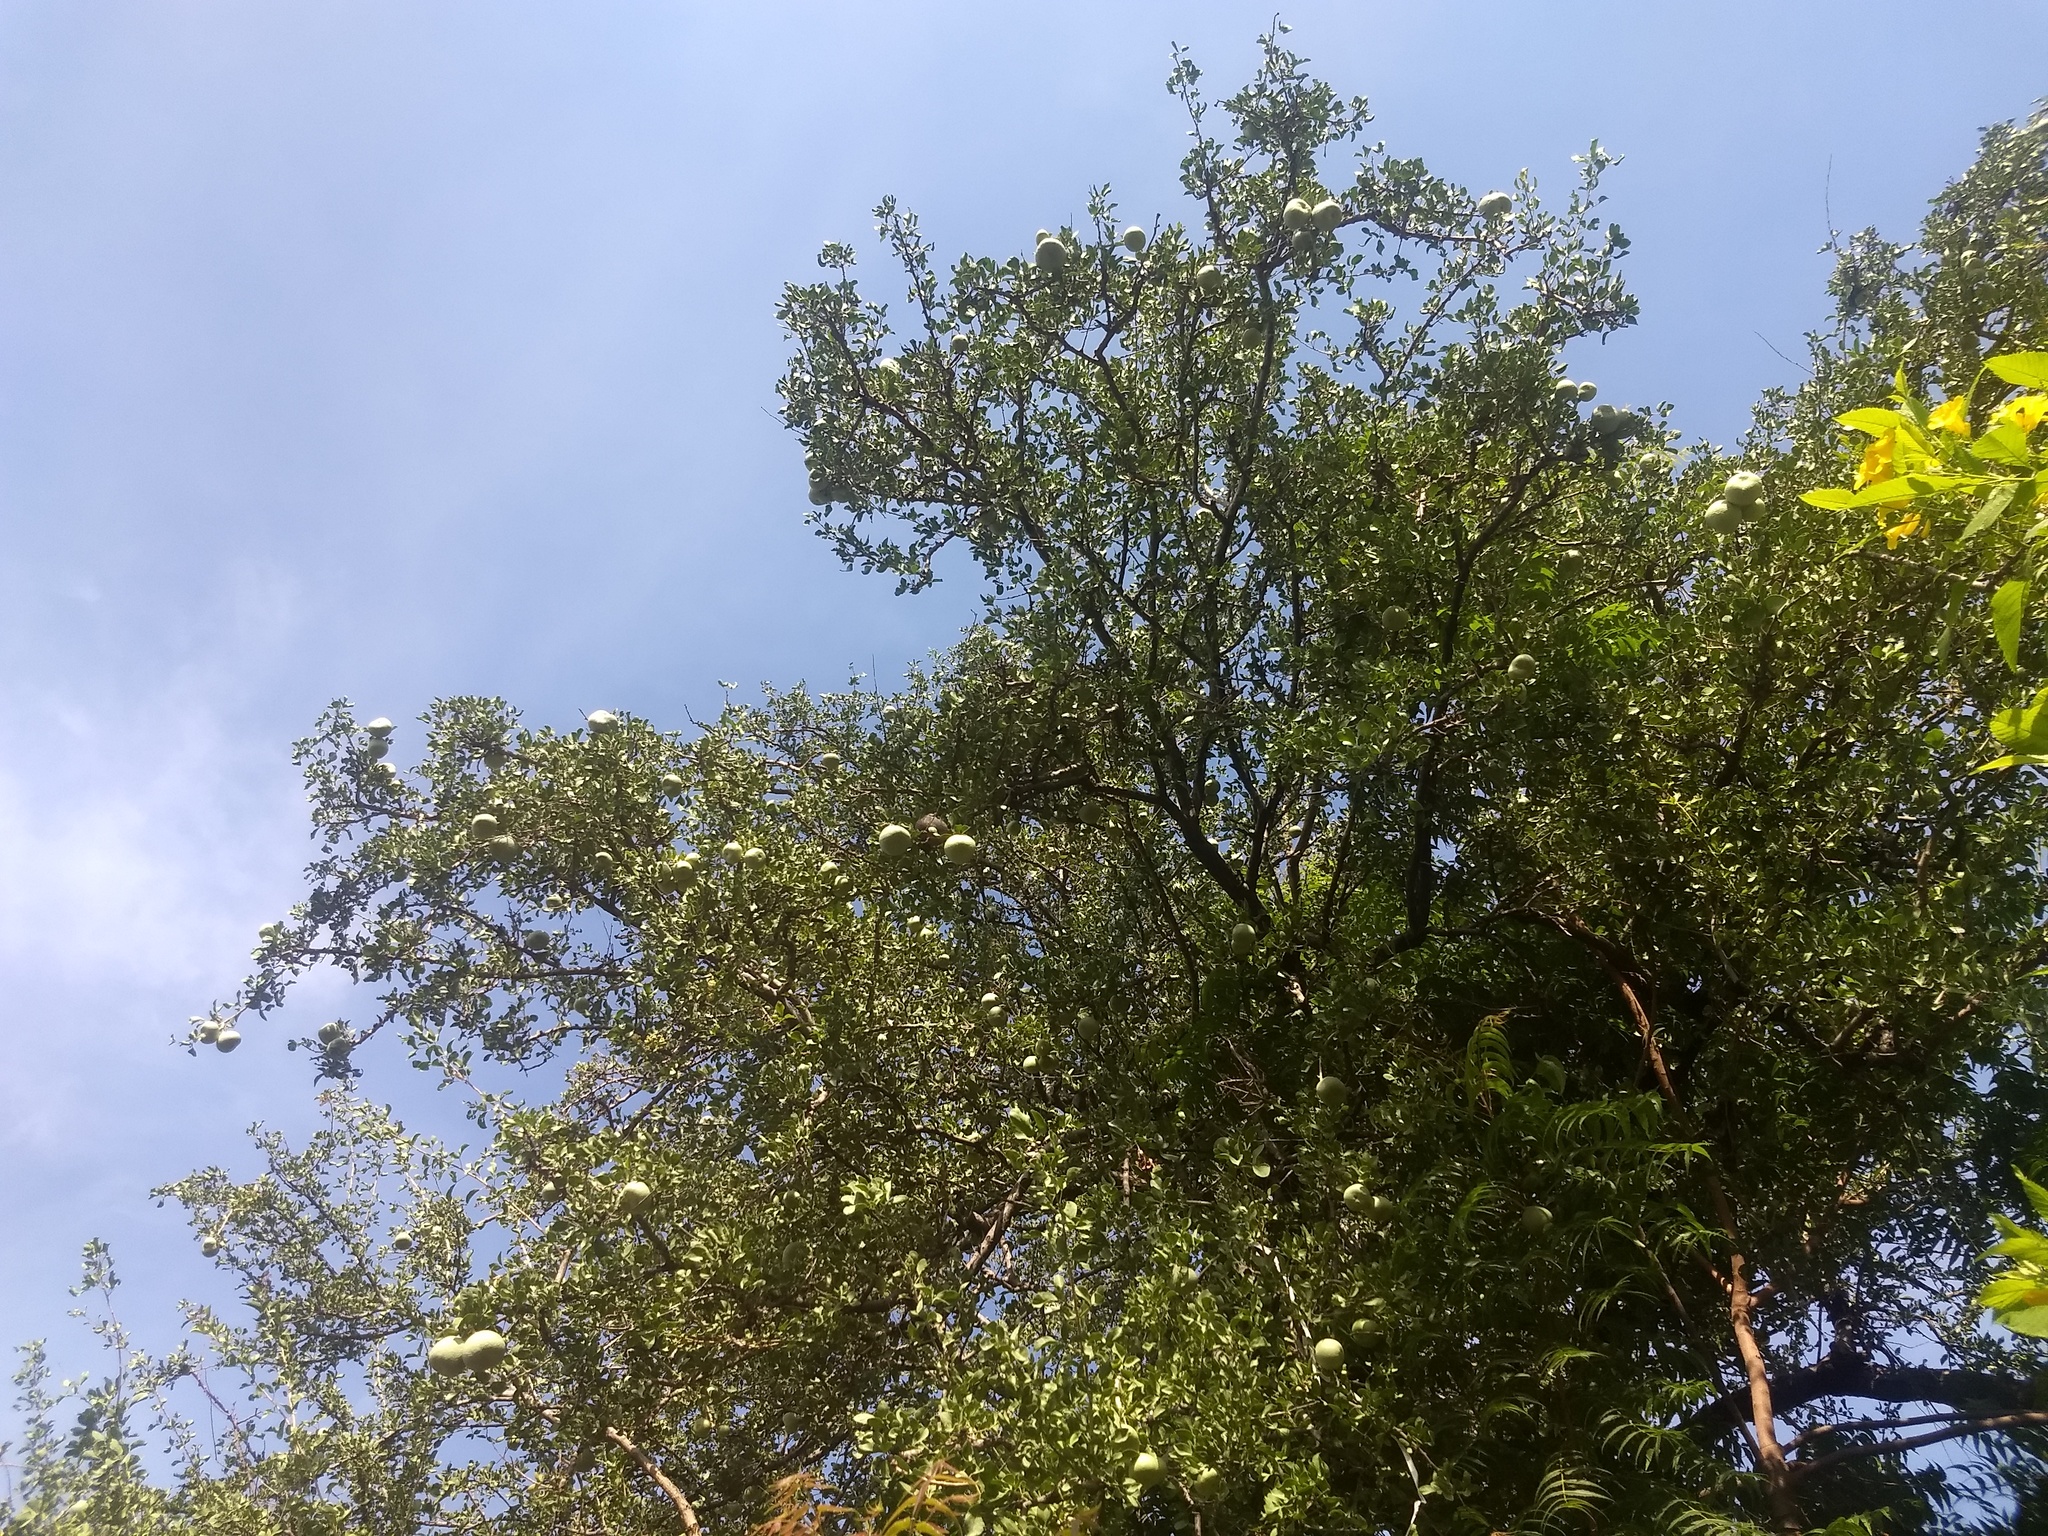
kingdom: Plantae
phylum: Tracheophyta
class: Magnoliopsida
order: Sapindales
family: Rutaceae
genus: Aegle
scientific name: Aegle marmelos
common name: Bael
